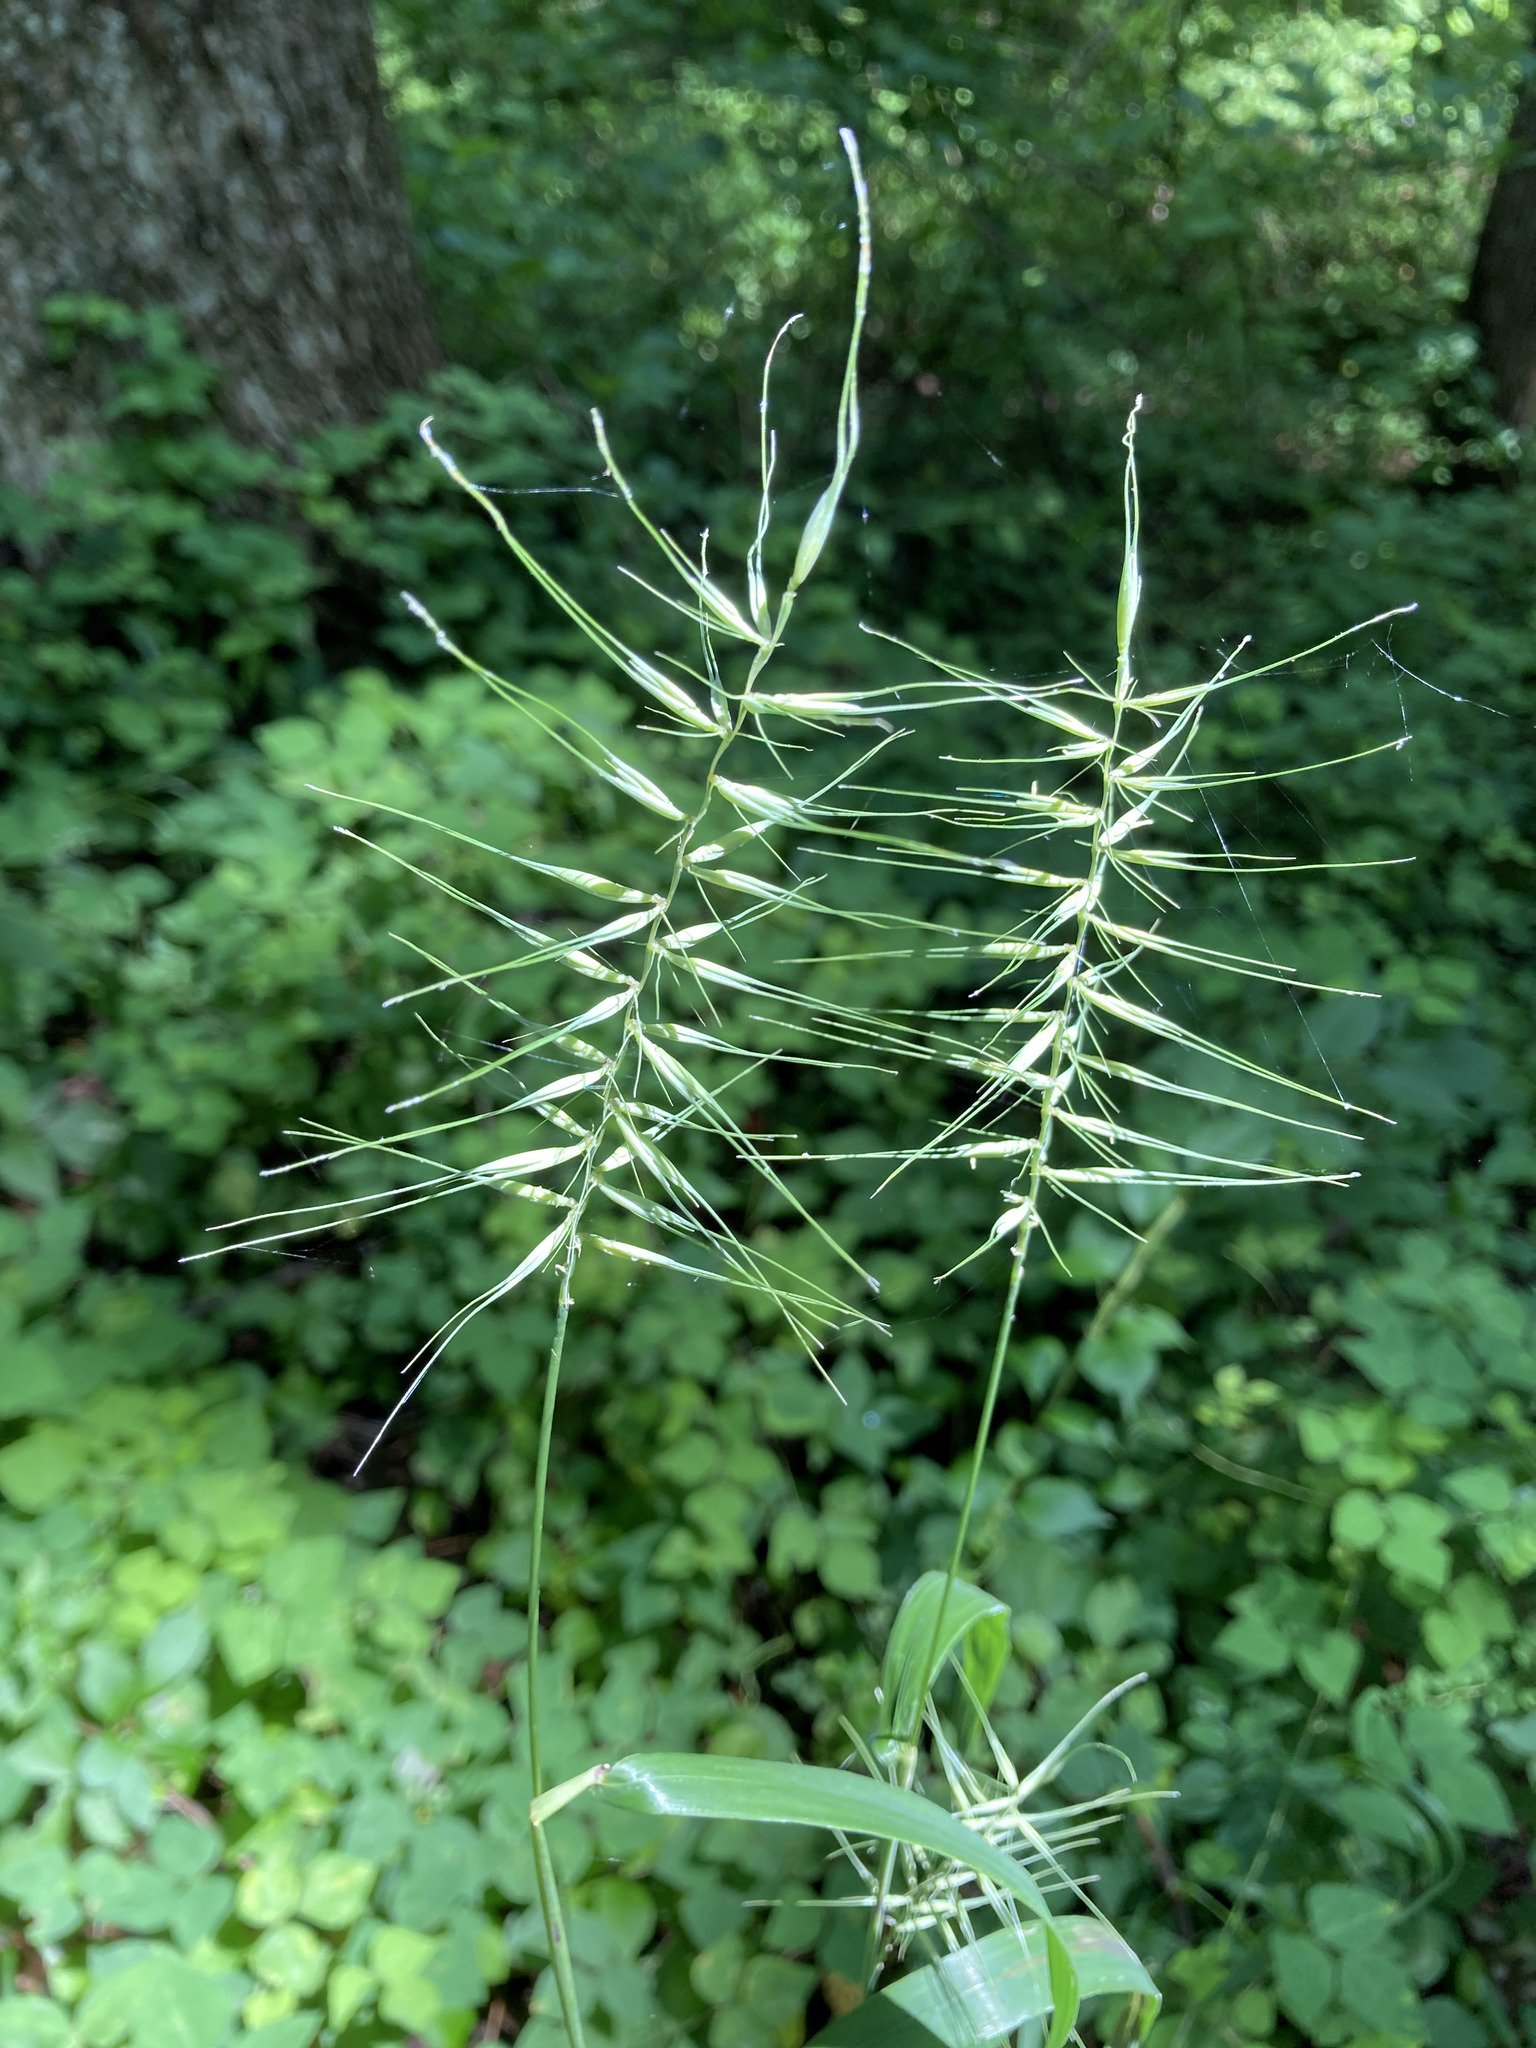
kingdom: Plantae
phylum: Tracheophyta
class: Liliopsida
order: Poales
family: Poaceae
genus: Elymus
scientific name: Elymus hystrix
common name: Bottlebrush grass
